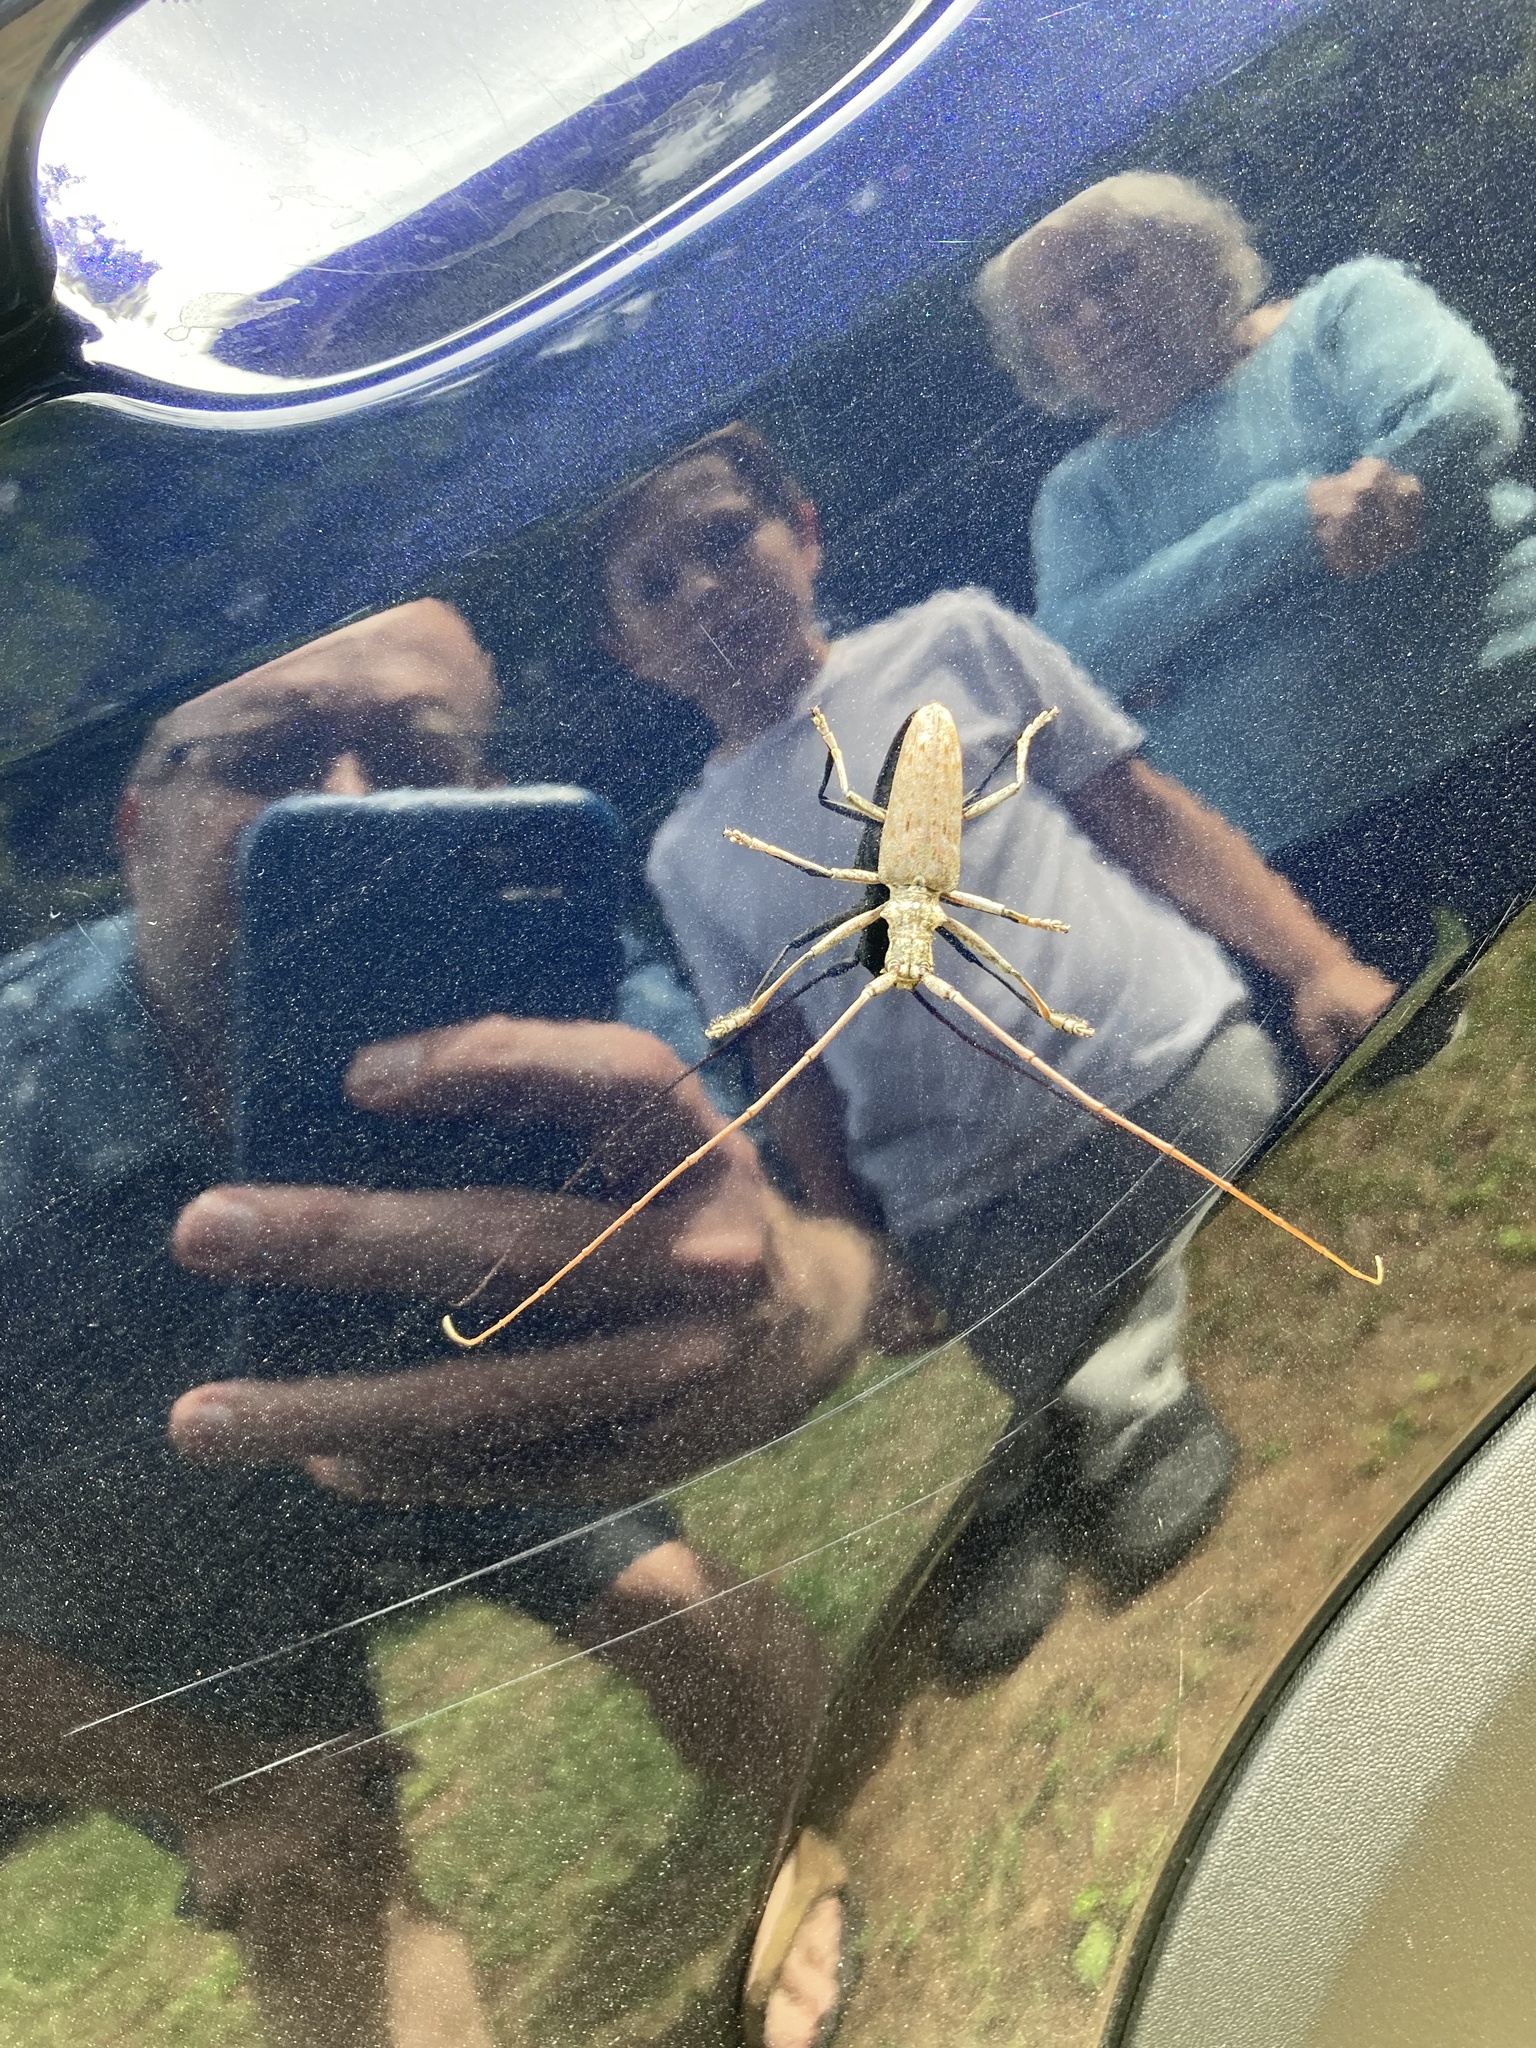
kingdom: Animalia
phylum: Arthropoda
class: Insecta
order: Coleoptera
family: Cerambycidae
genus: Monochamus
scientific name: Monochamus notatus
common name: Northeastern pine sawyer beetle
